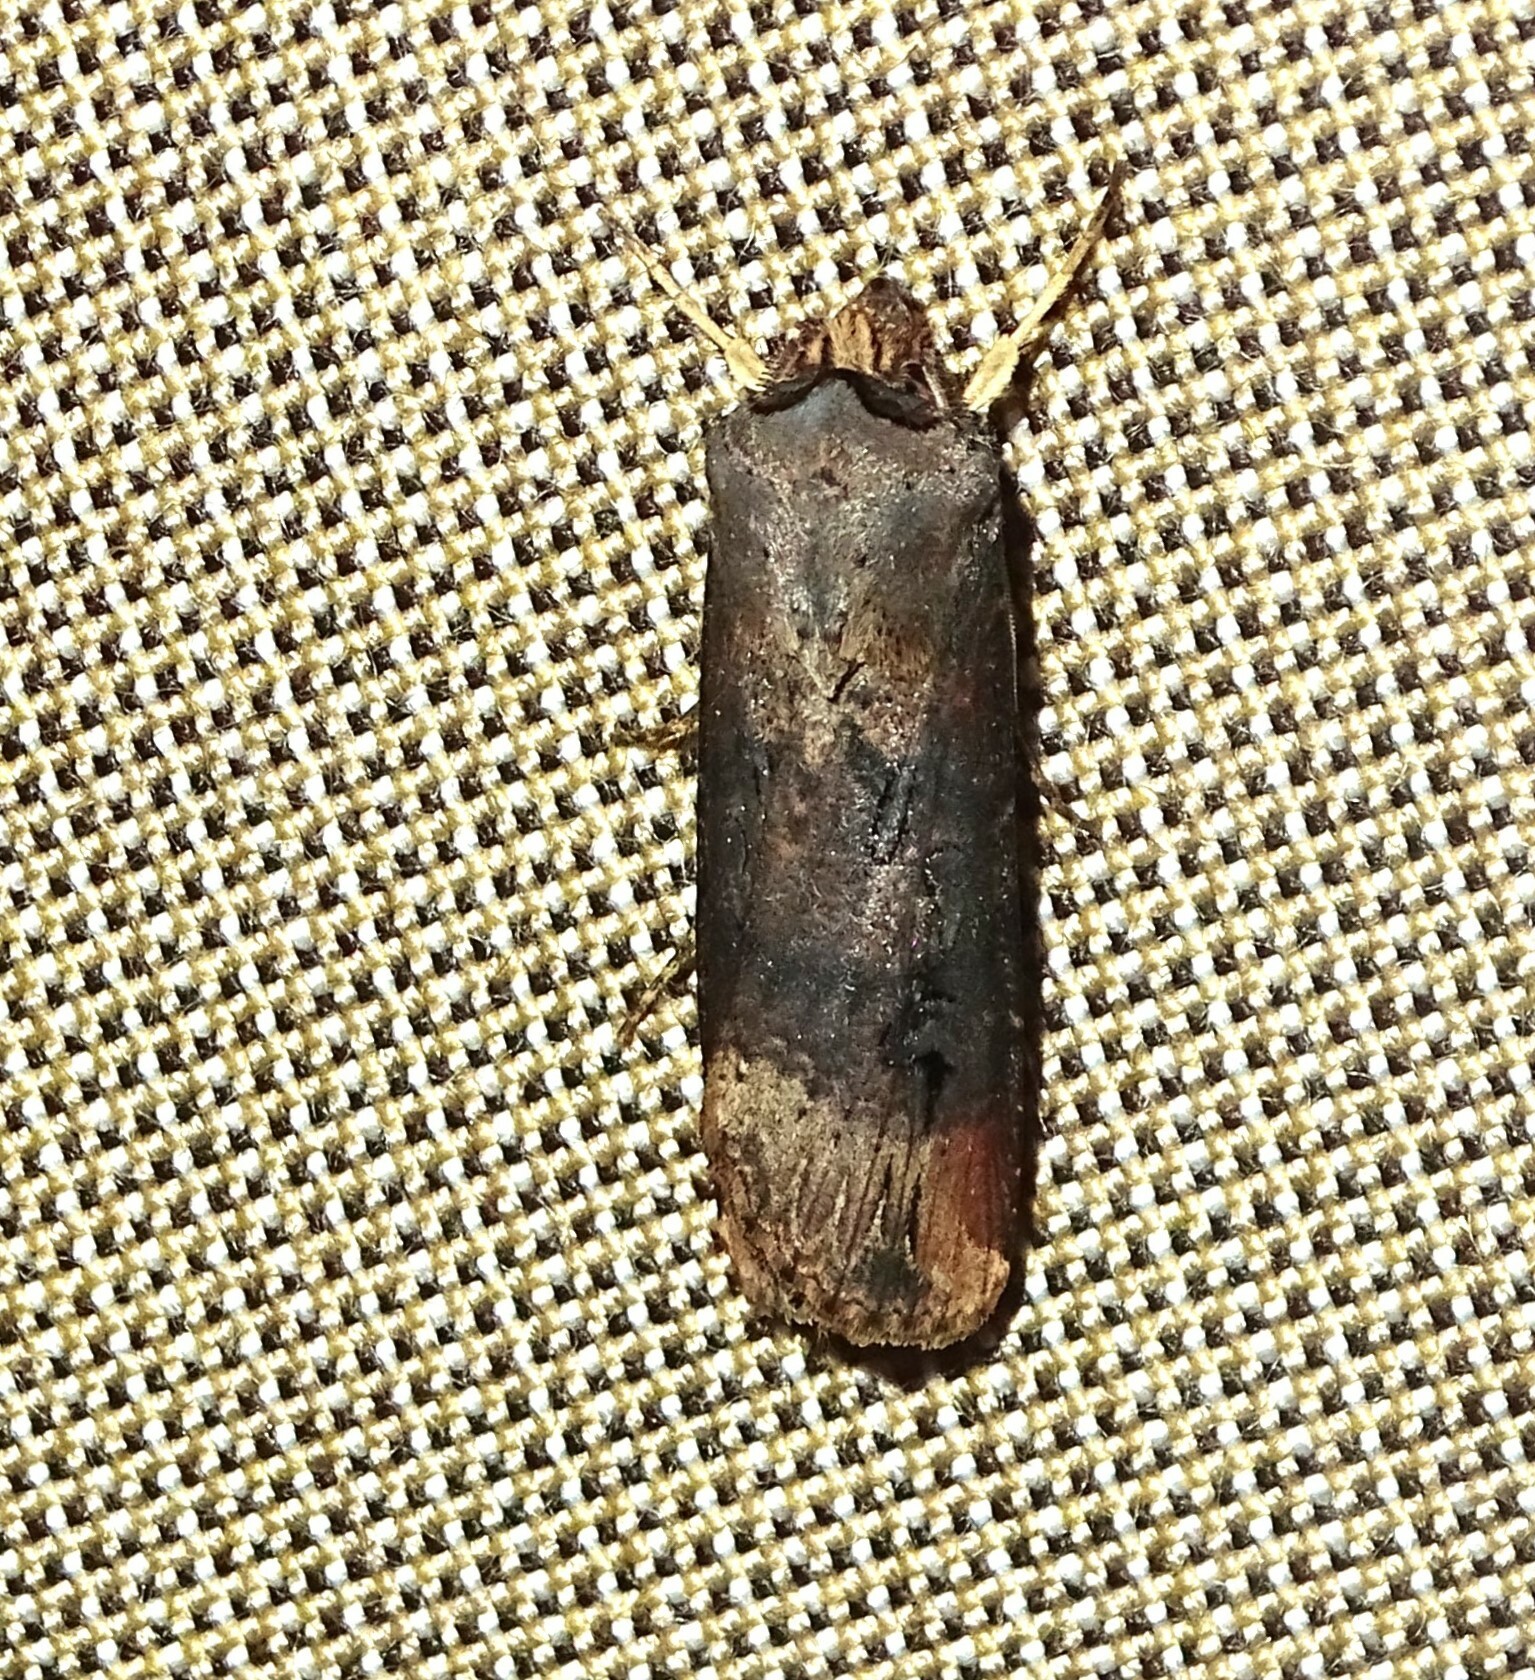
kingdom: Animalia
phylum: Arthropoda
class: Insecta
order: Lepidoptera
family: Noctuidae
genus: Agrotis
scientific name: Agrotis ipsilon
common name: Dark sword-grass
